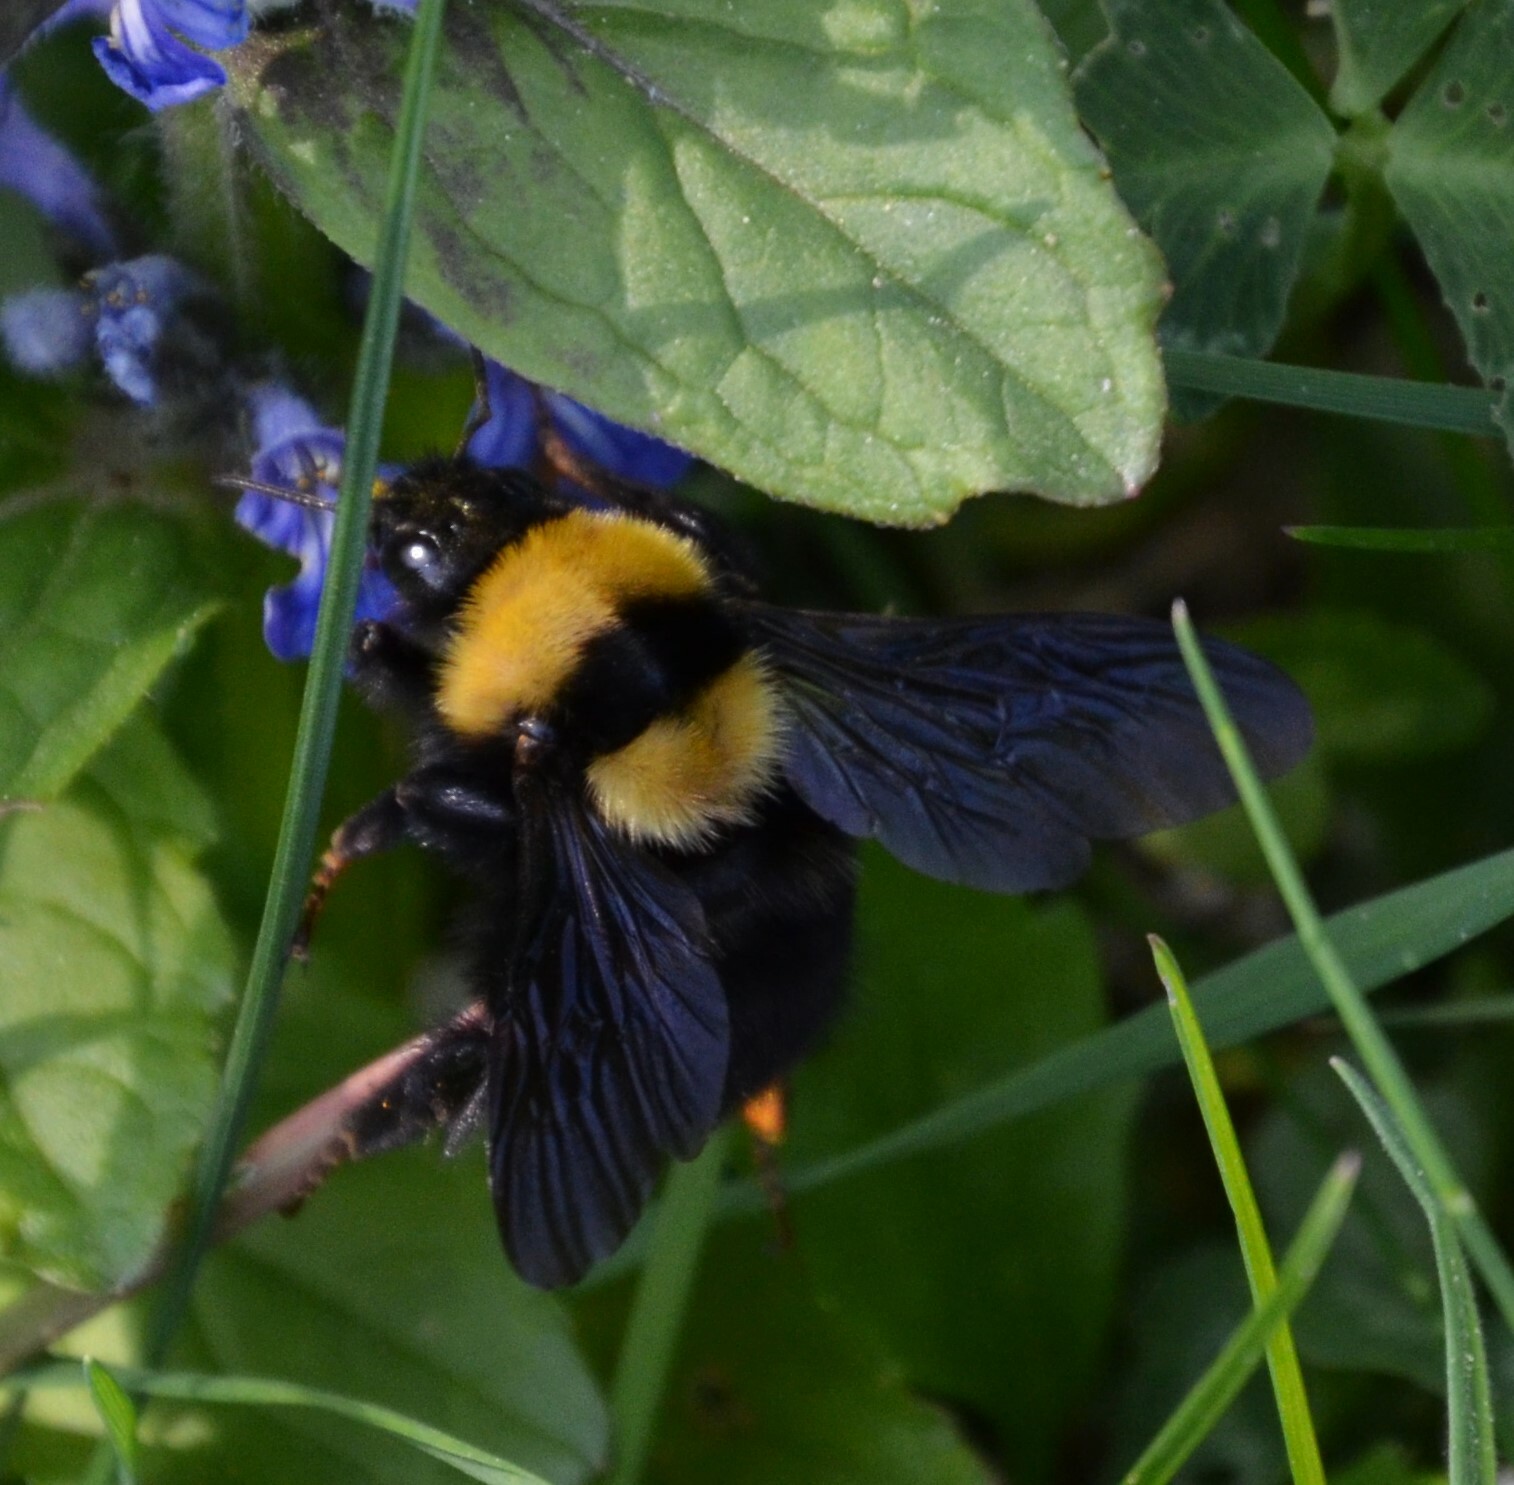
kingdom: Animalia
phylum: Arthropoda
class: Insecta
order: Hymenoptera
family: Apidae
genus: Bombus
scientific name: Bombus argillaceus
